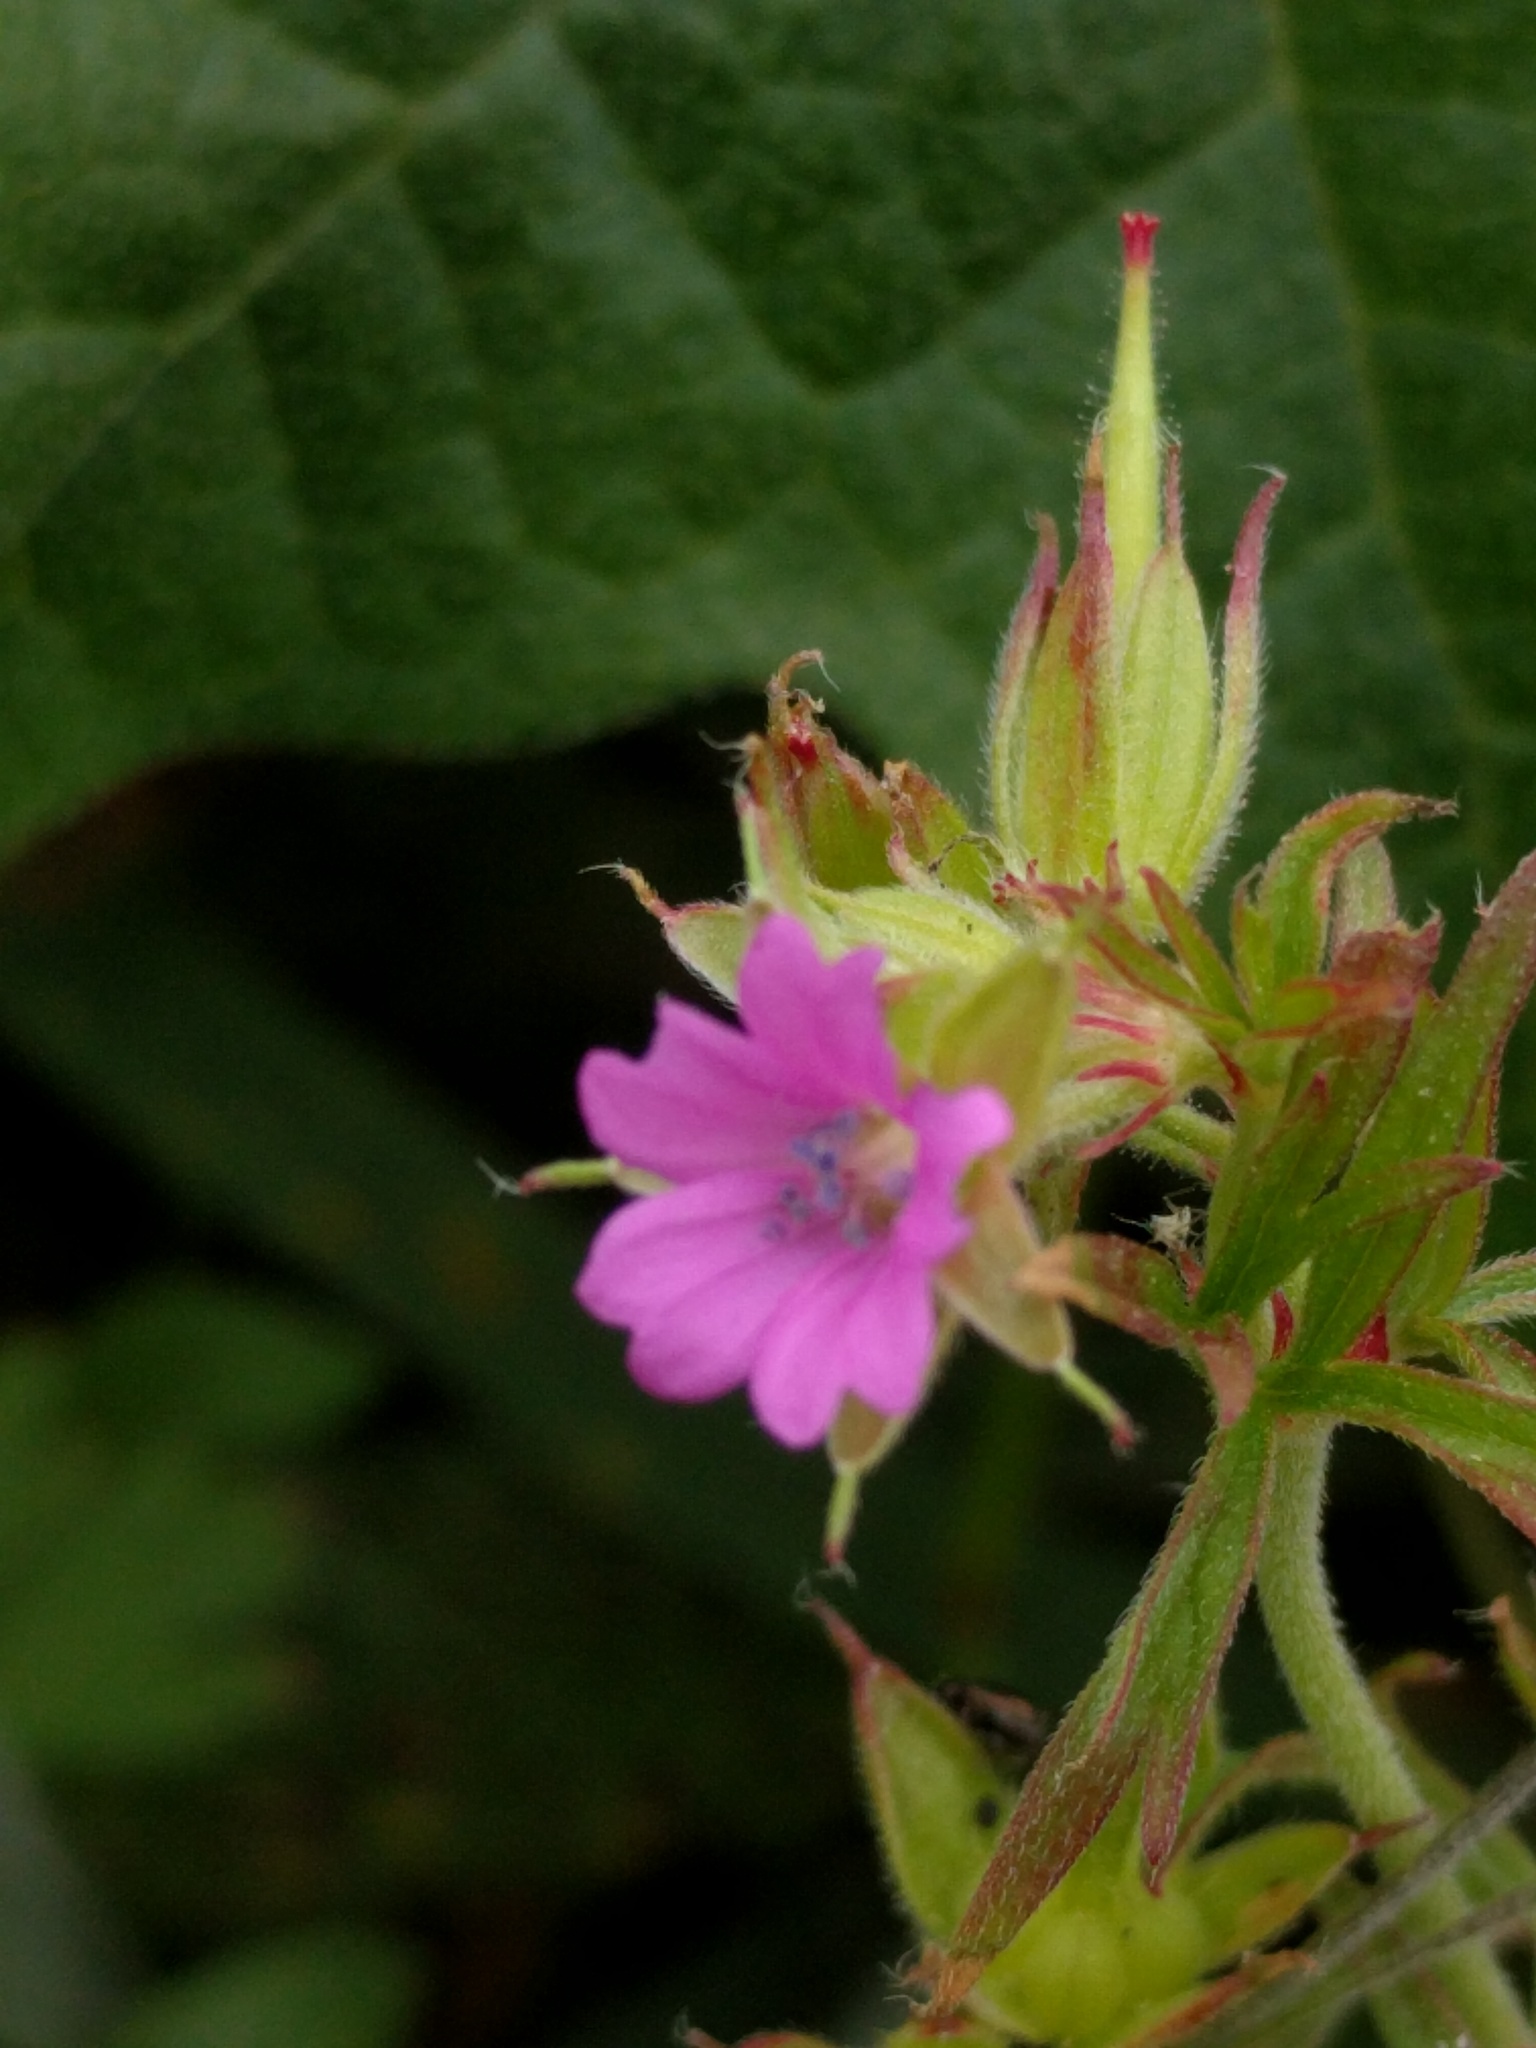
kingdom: Plantae
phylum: Tracheophyta
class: Magnoliopsida
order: Geraniales
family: Geraniaceae
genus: Geranium
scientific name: Geranium dissectum
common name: Cut-leaved crane's-bill
